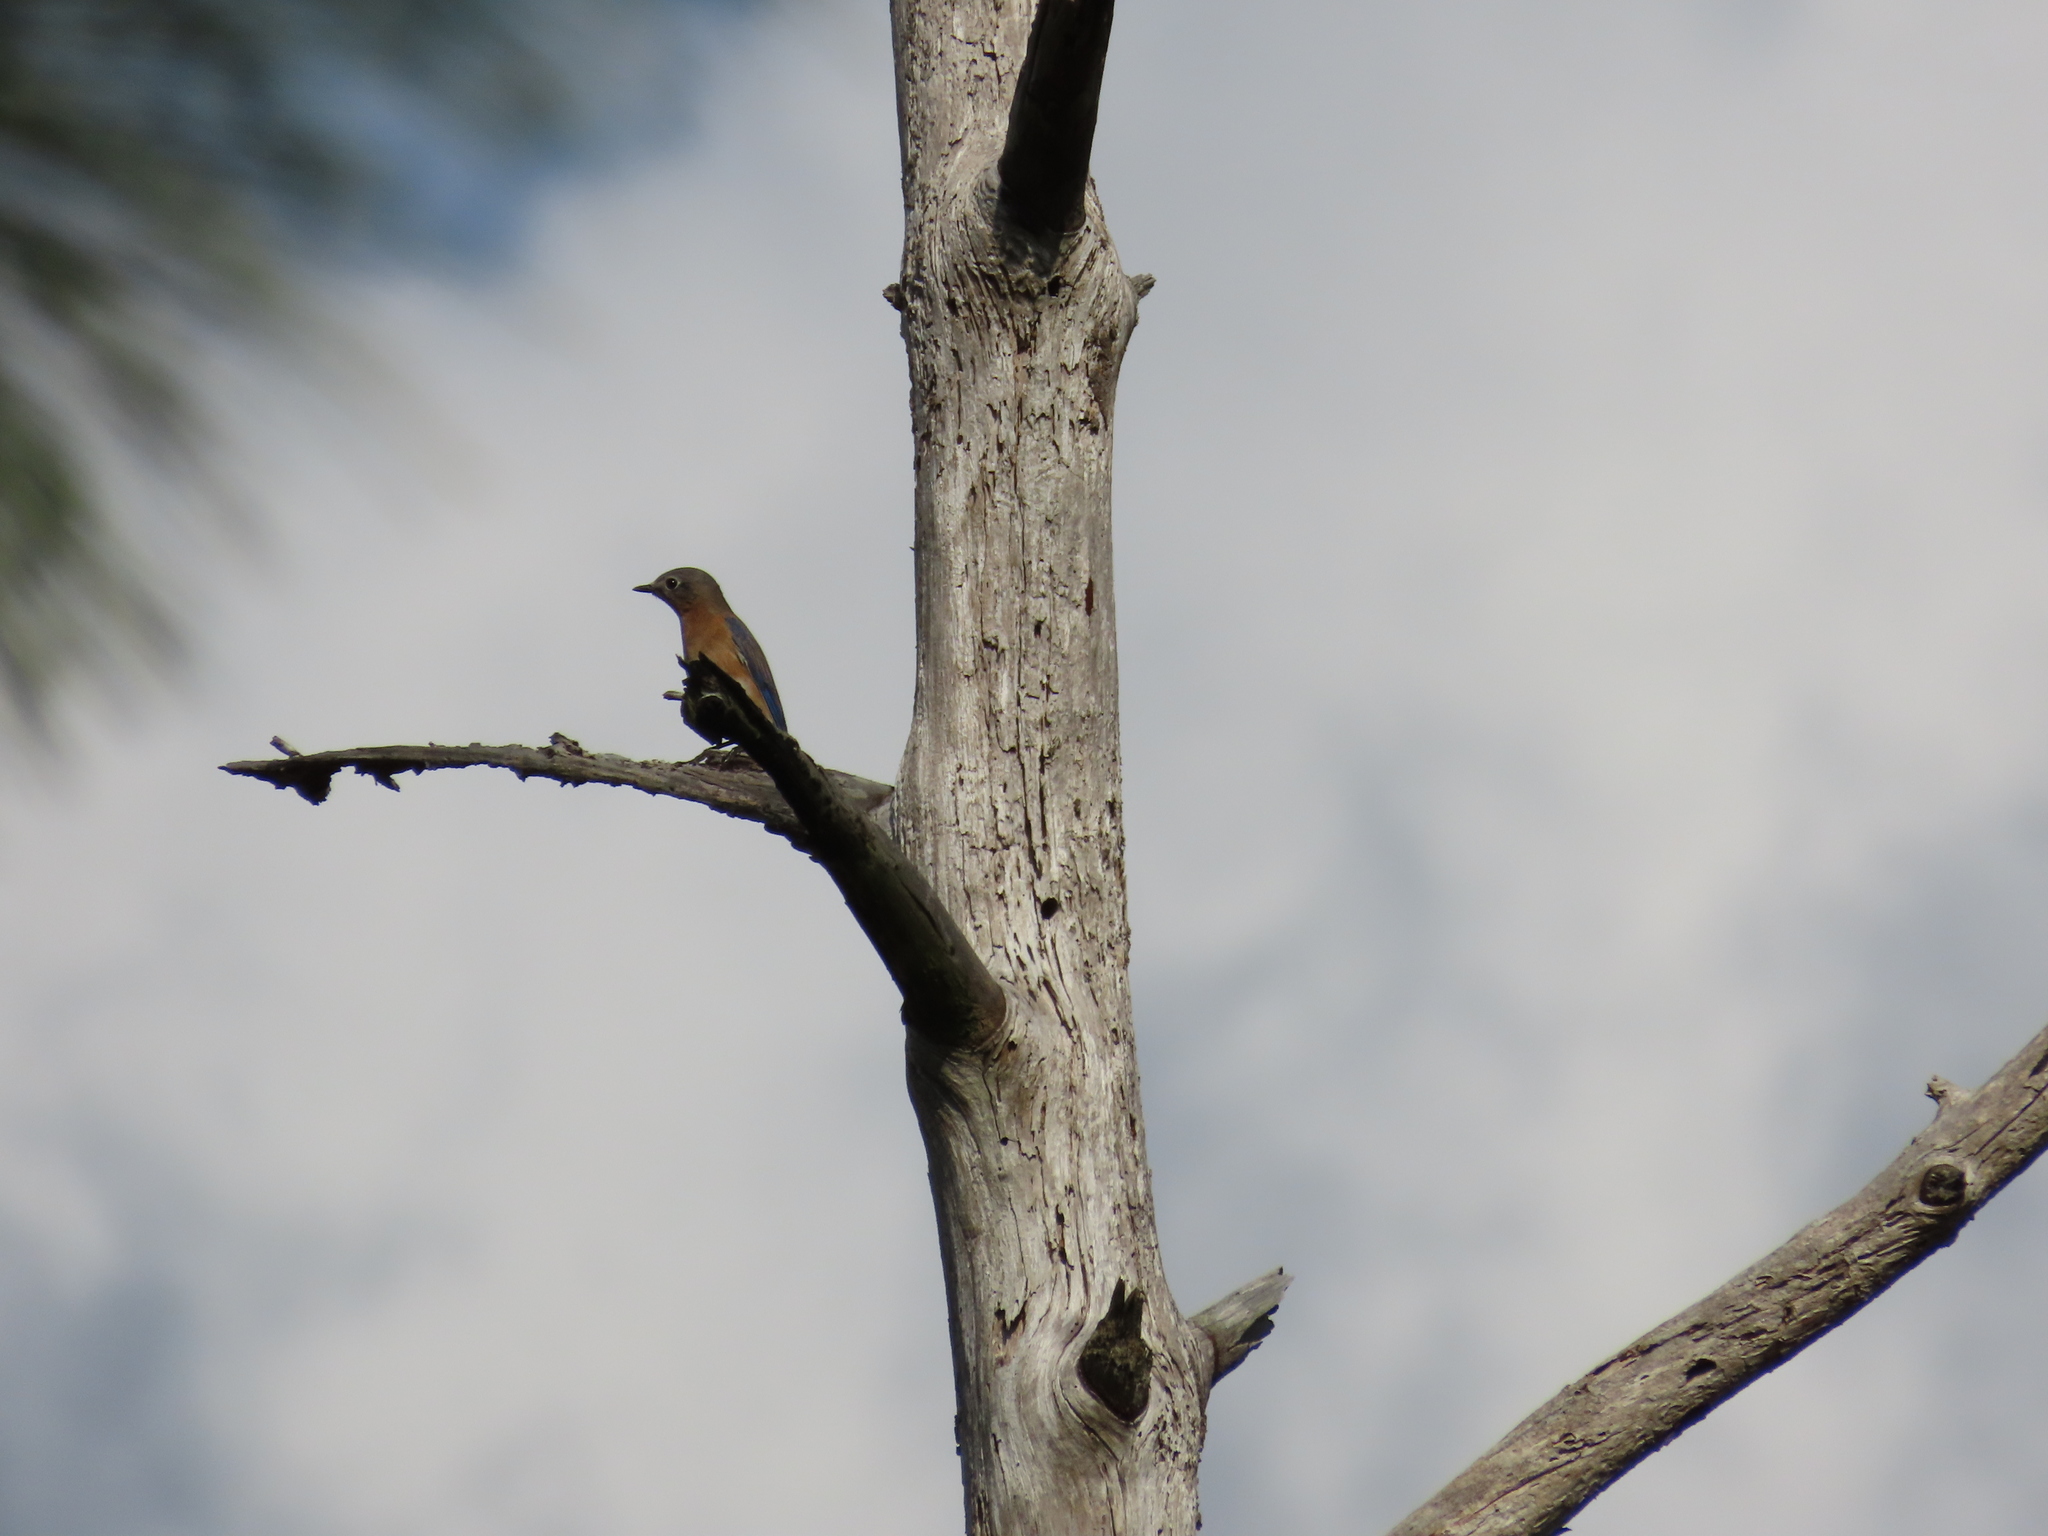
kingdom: Animalia
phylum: Chordata
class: Aves
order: Passeriformes
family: Turdidae
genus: Sialia
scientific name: Sialia sialis
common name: Eastern bluebird
